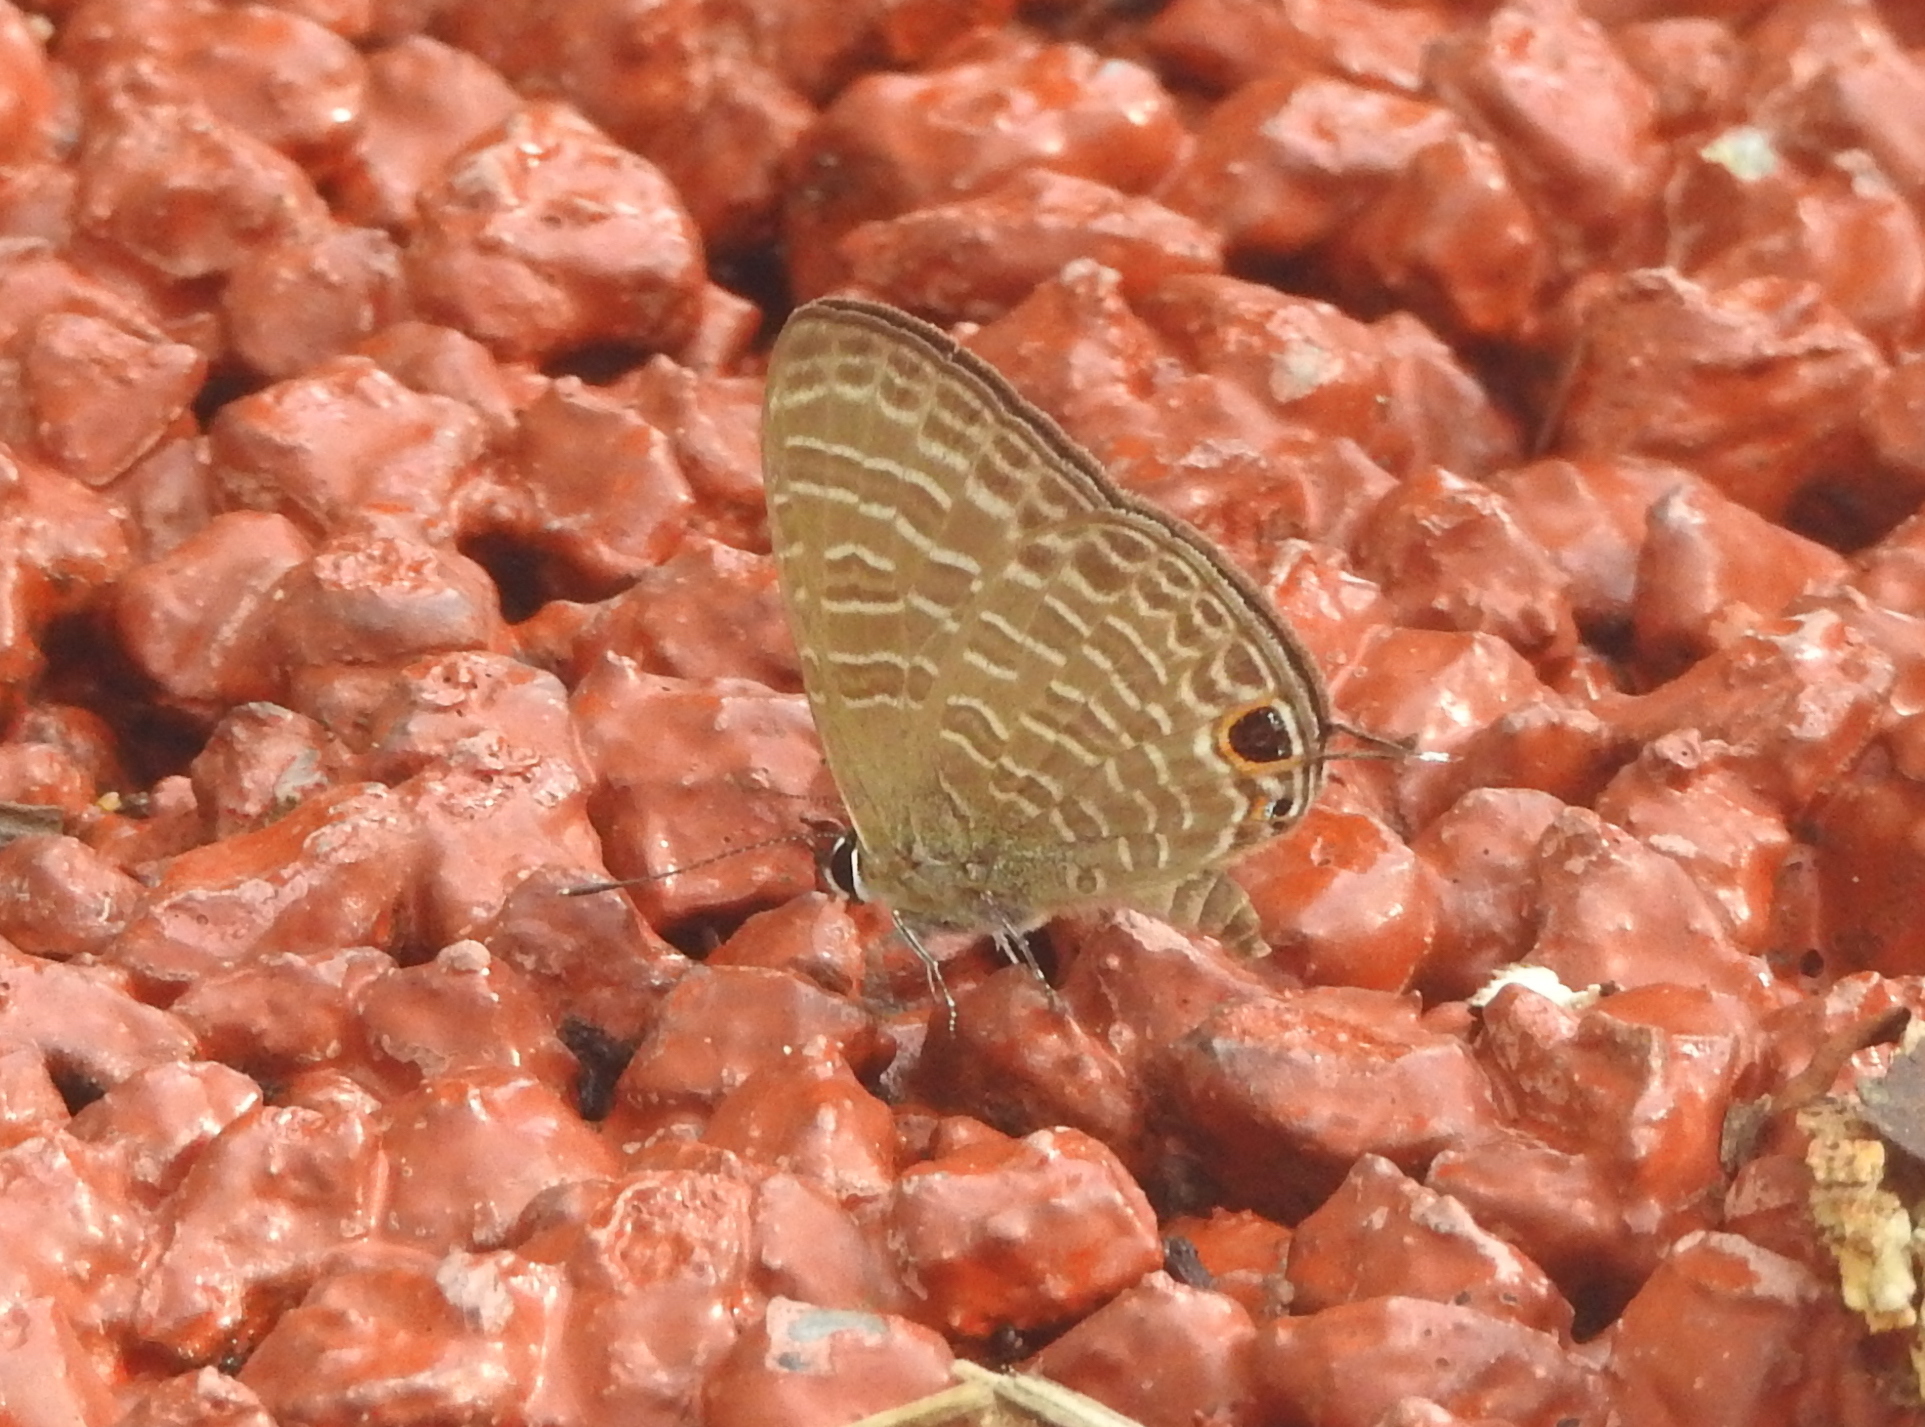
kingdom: Animalia
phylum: Arthropoda
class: Insecta
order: Lepidoptera
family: Lycaenidae
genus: Nacaduba
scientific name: Nacaduba kurava
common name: Transparent 6-line blue
